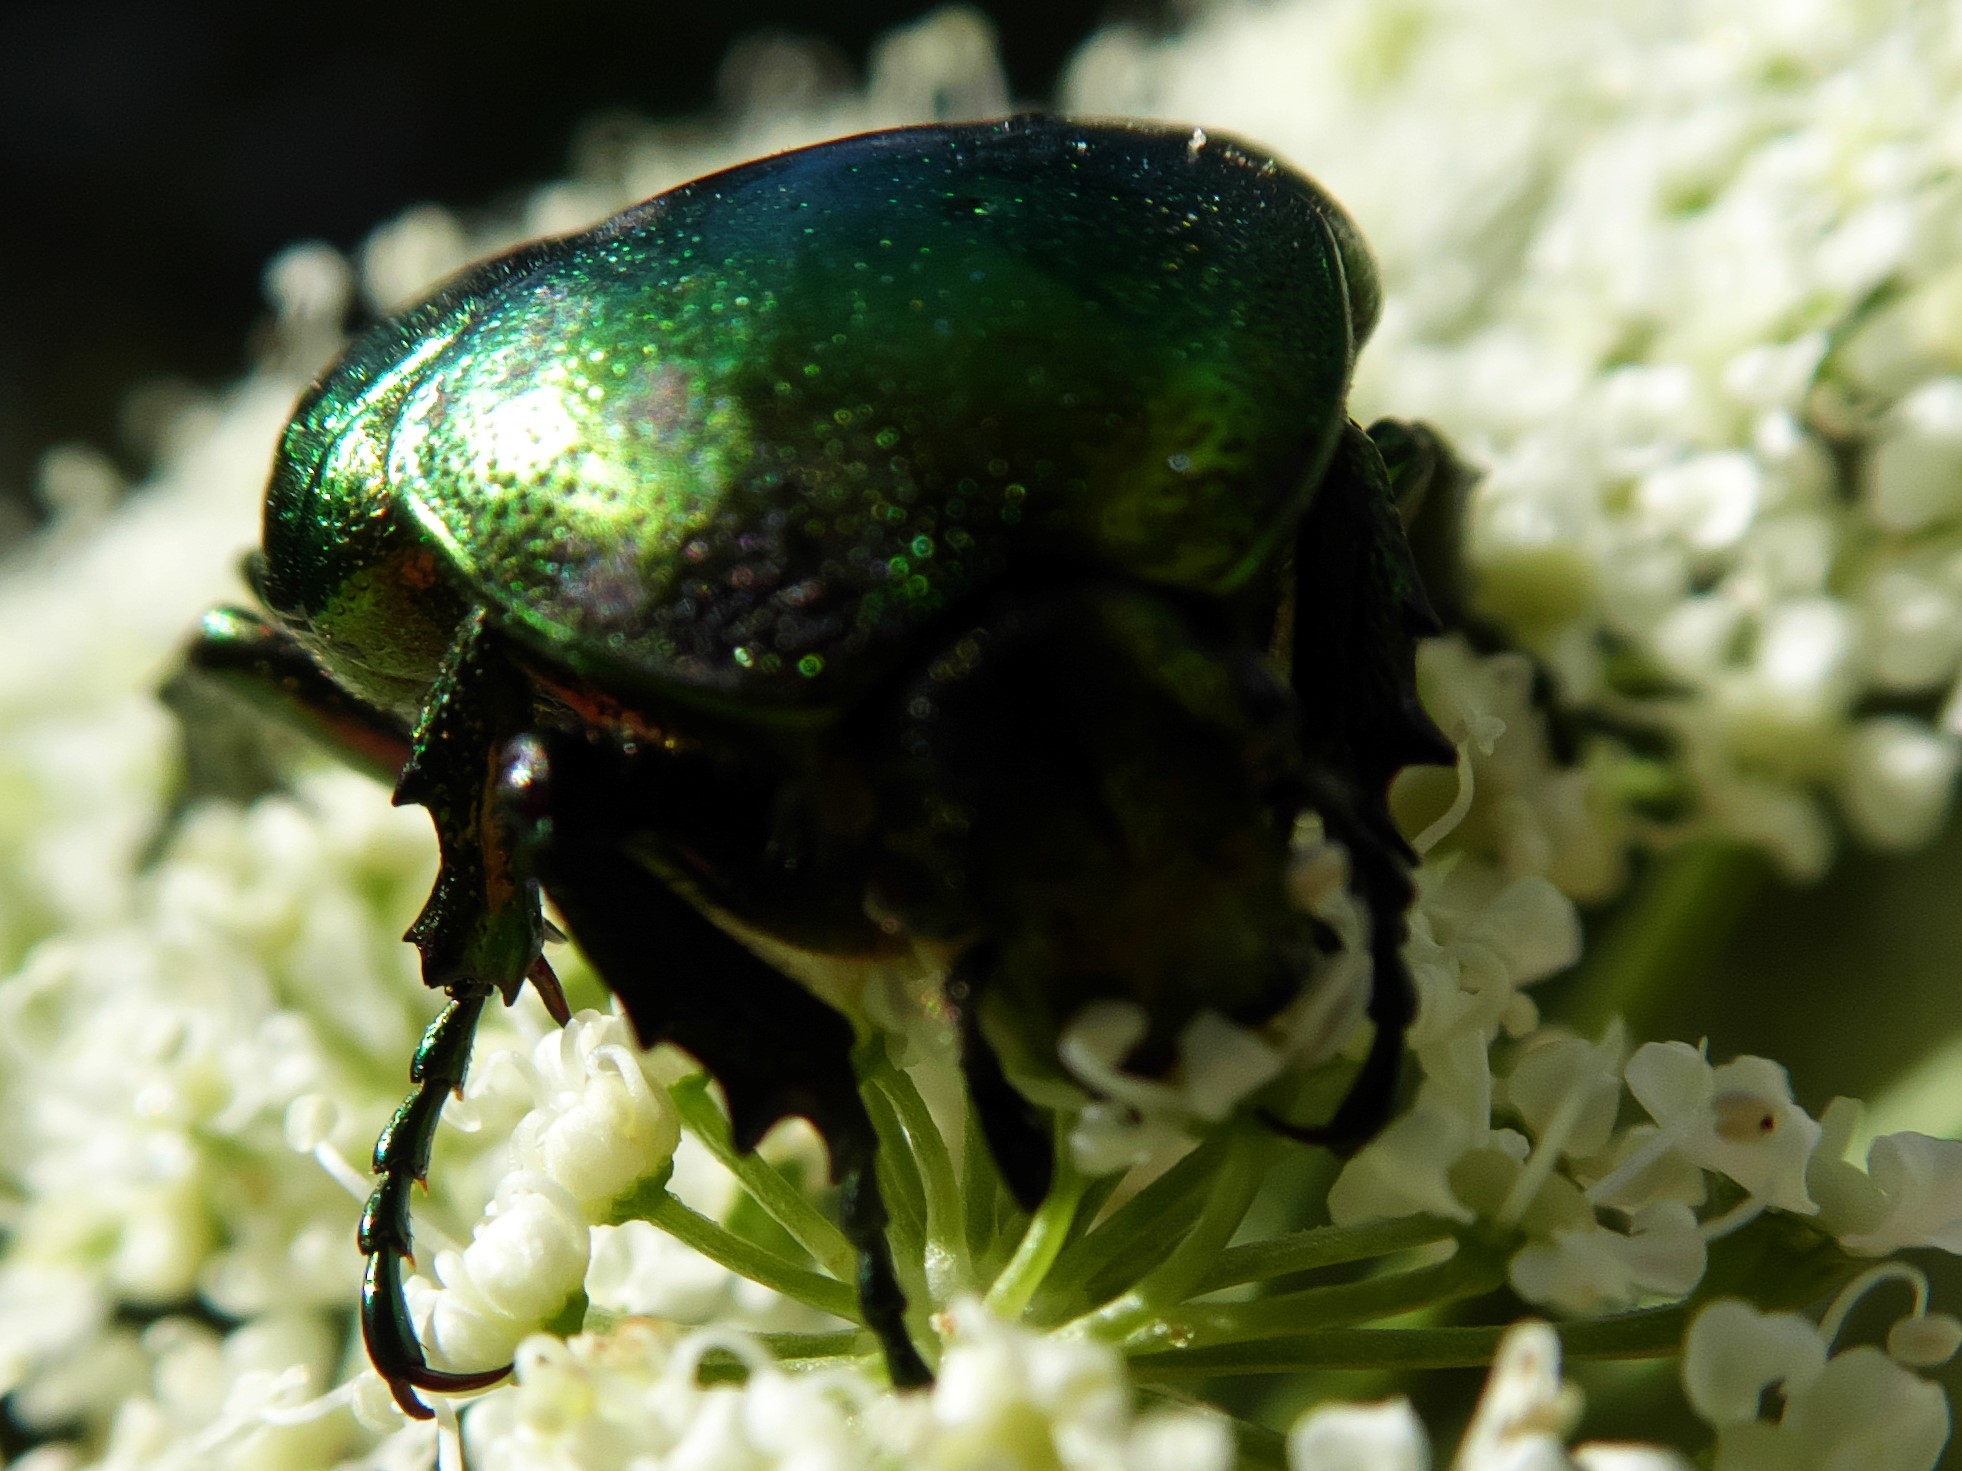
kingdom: Animalia
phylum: Arthropoda
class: Insecta
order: Coleoptera
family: Scarabaeidae
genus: Cetonia
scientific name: Cetonia aurata
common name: Rose chafer
